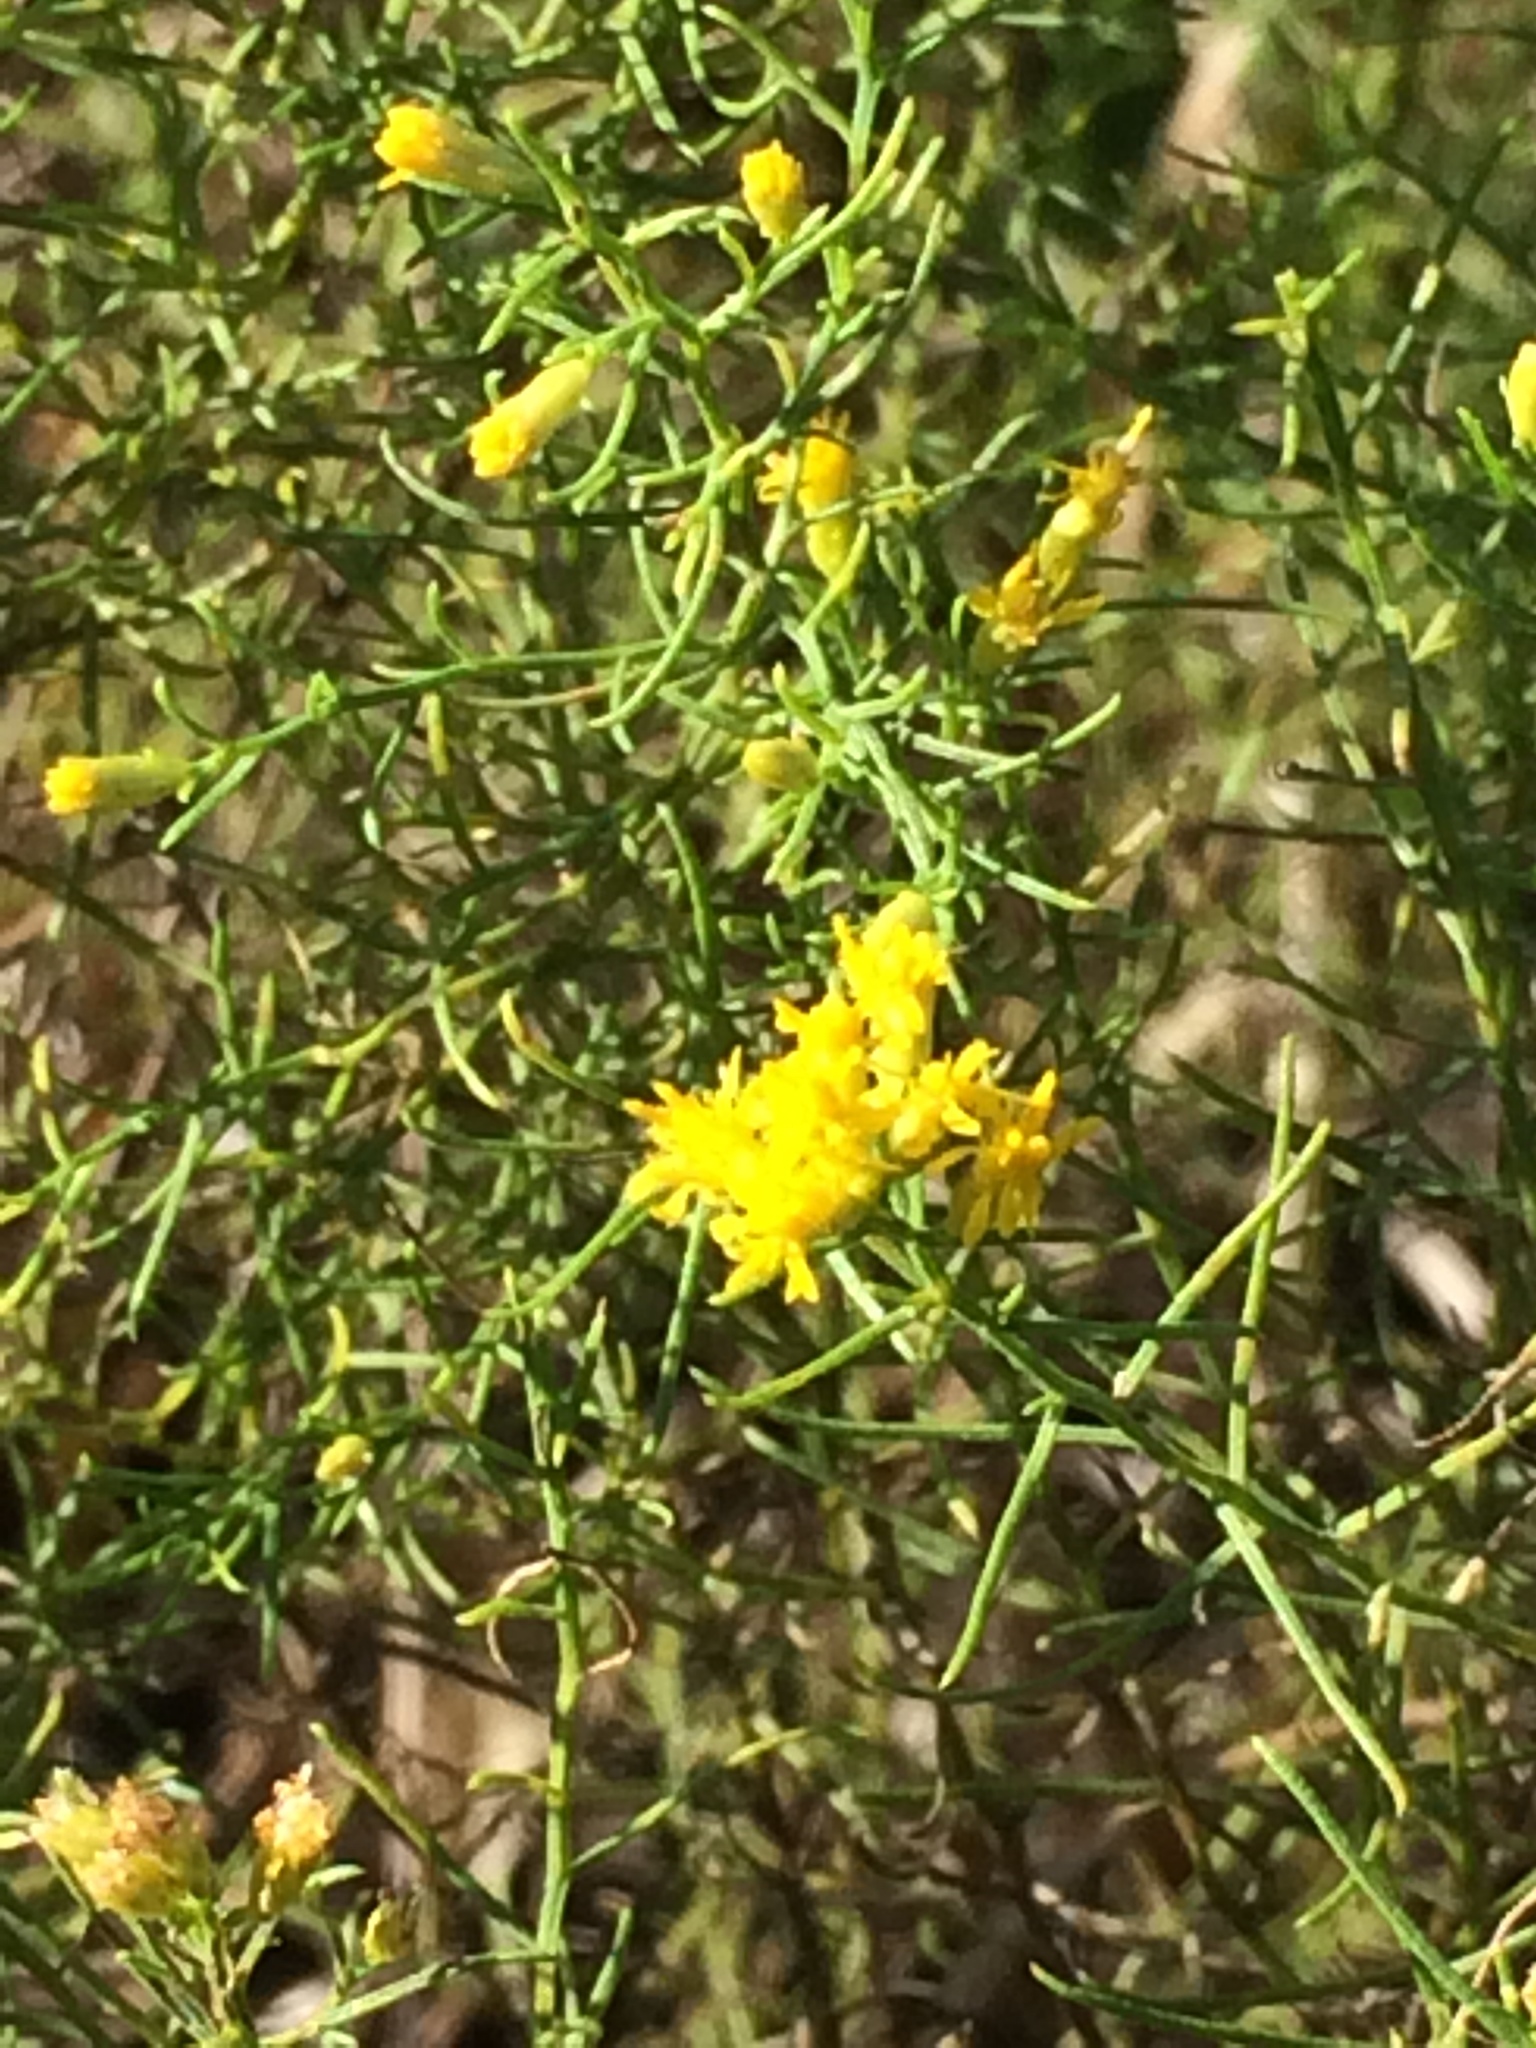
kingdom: Plantae
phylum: Tracheophyta
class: Magnoliopsida
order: Asterales
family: Asteraceae
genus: Euthamia
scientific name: Euthamia caroliniana
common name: Coastal plain goldentop
